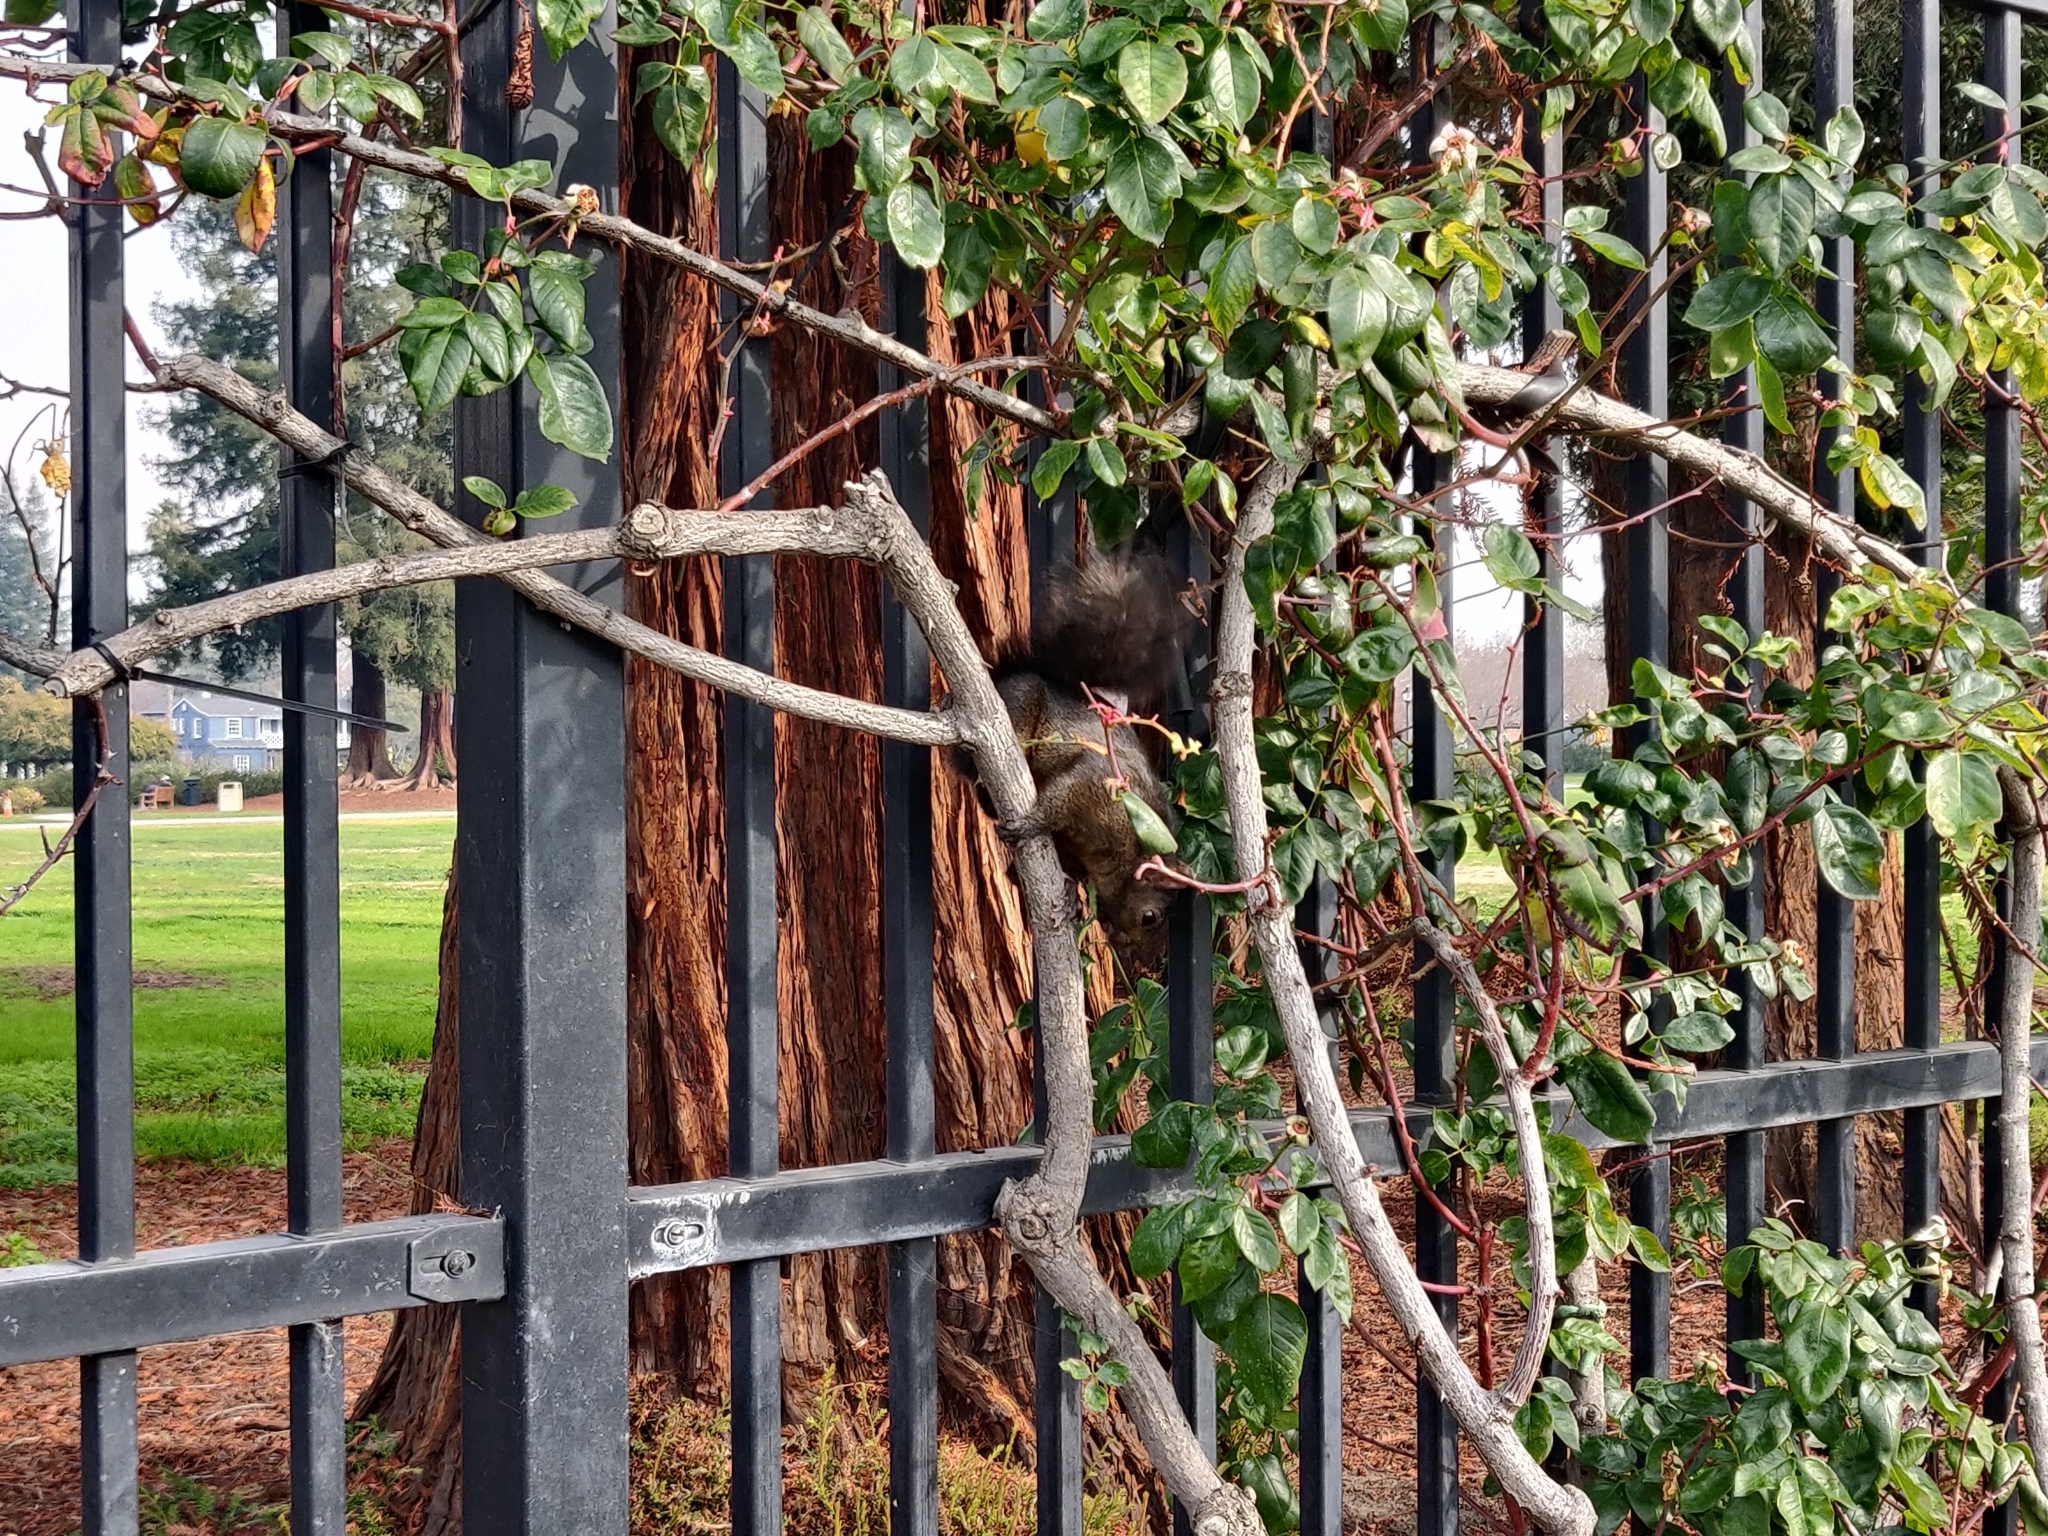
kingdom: Animalia
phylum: Chordata
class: Mammalia
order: Rodentia
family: Sciuridae
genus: Sciurus
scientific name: Sciurus carolinensis
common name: Eastern gray squirrel
